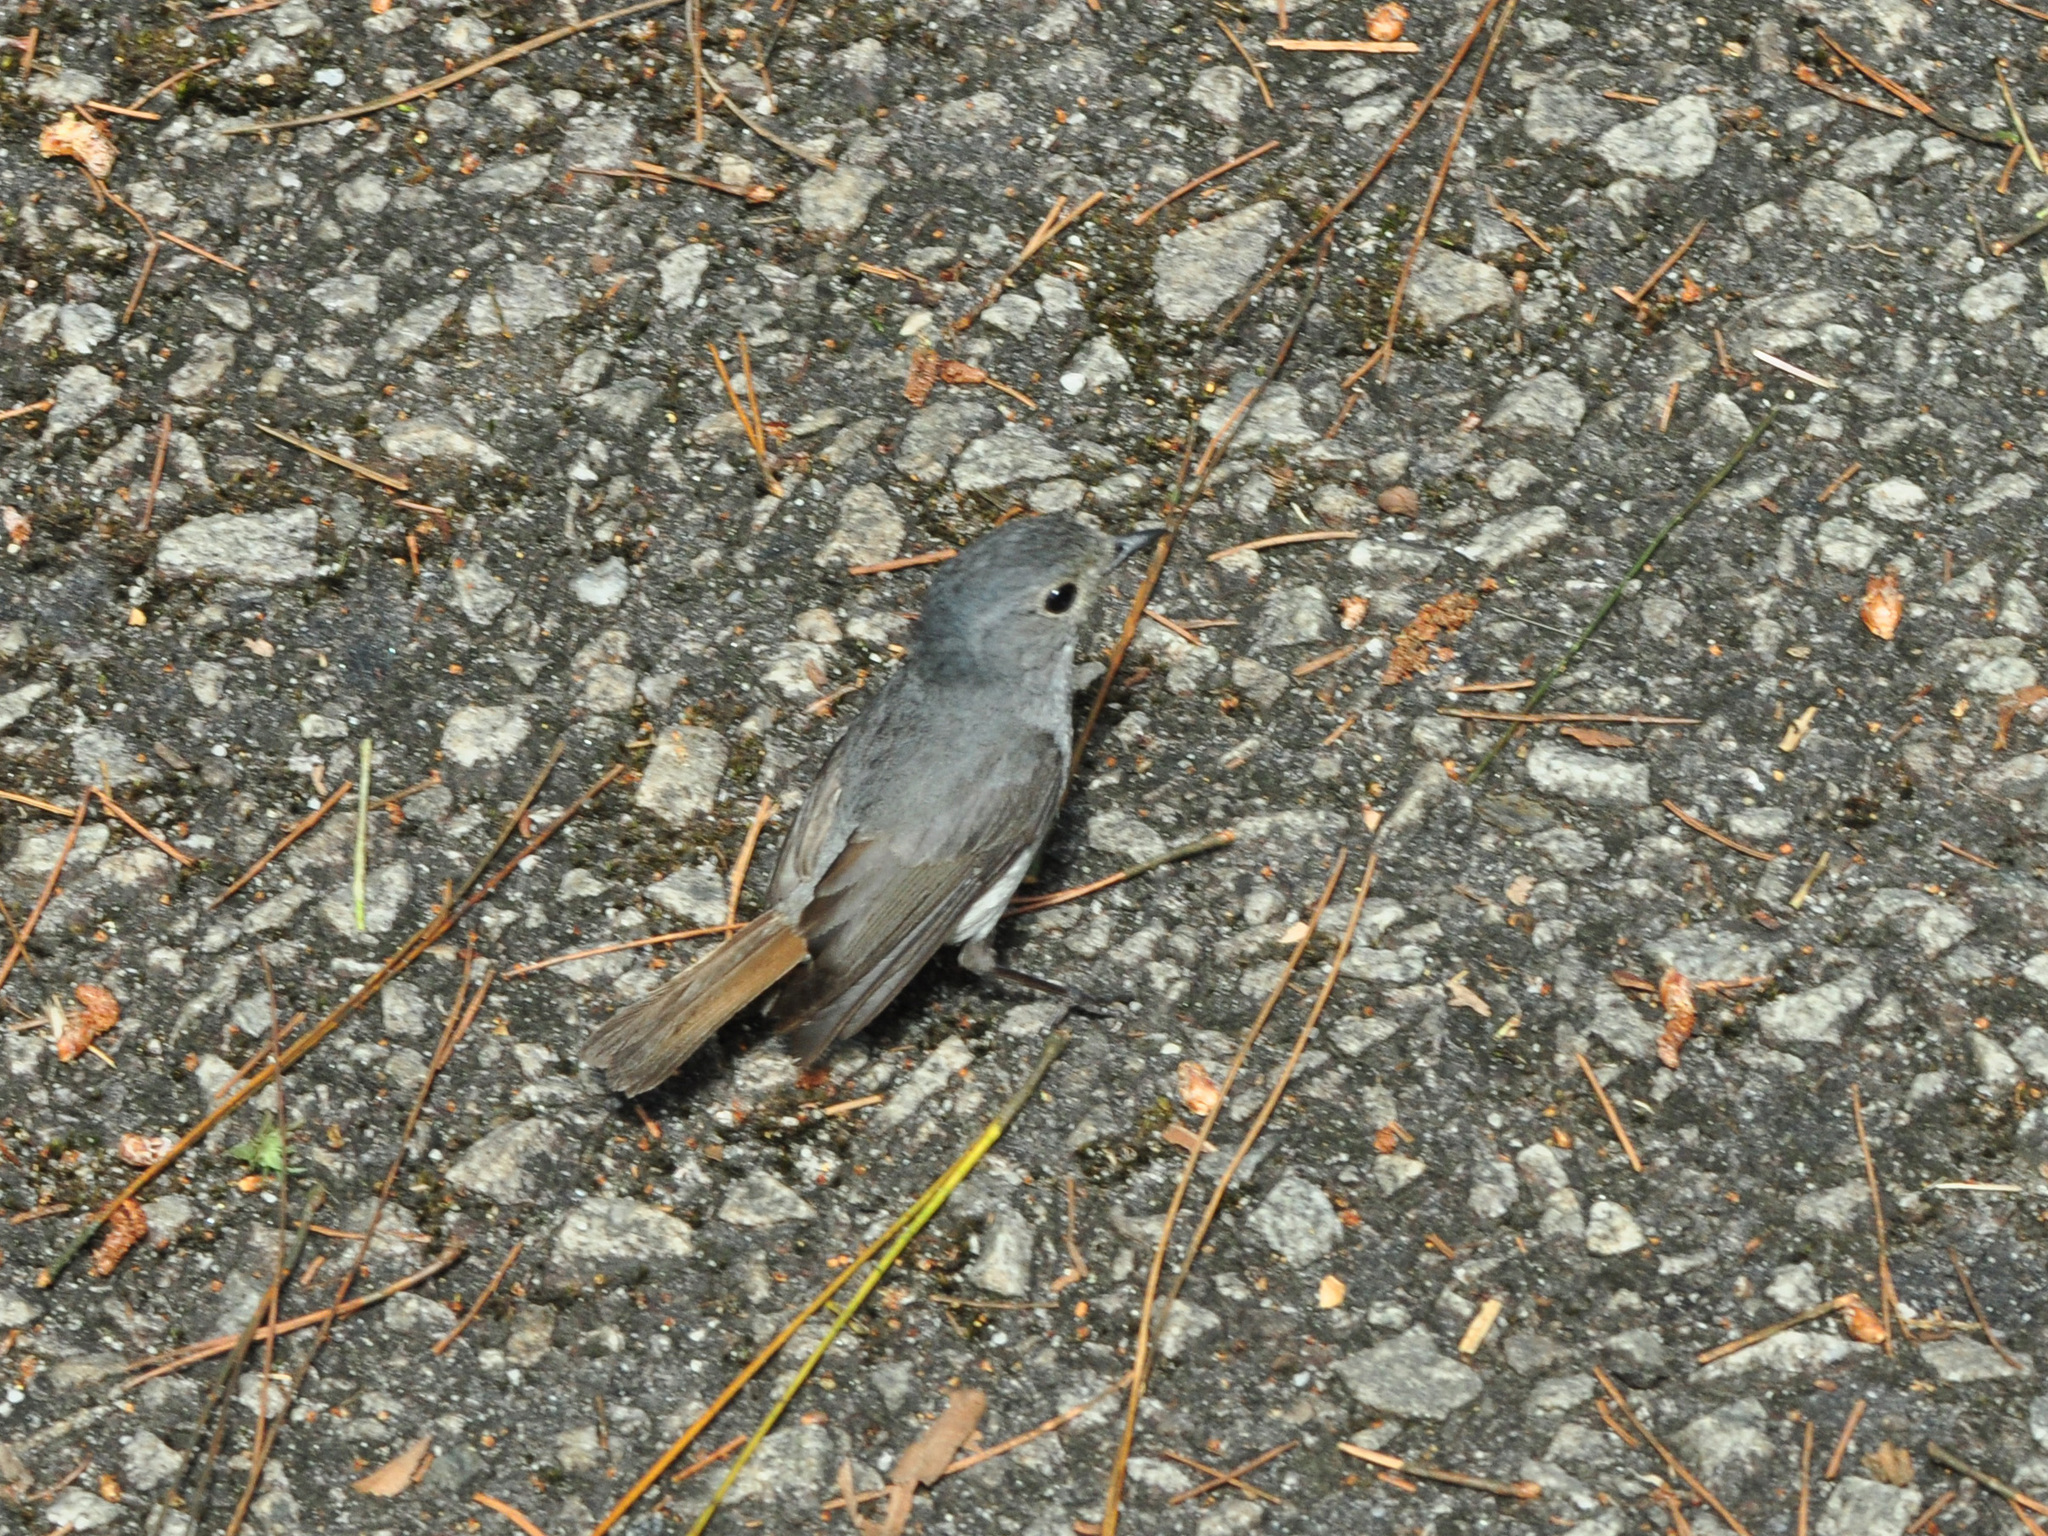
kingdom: Animalia
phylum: Chordata
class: Aves
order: Passeriformes
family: Muscicapidae
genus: Ficedula
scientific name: Ficedula westermanni
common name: Little pied flycatcher
